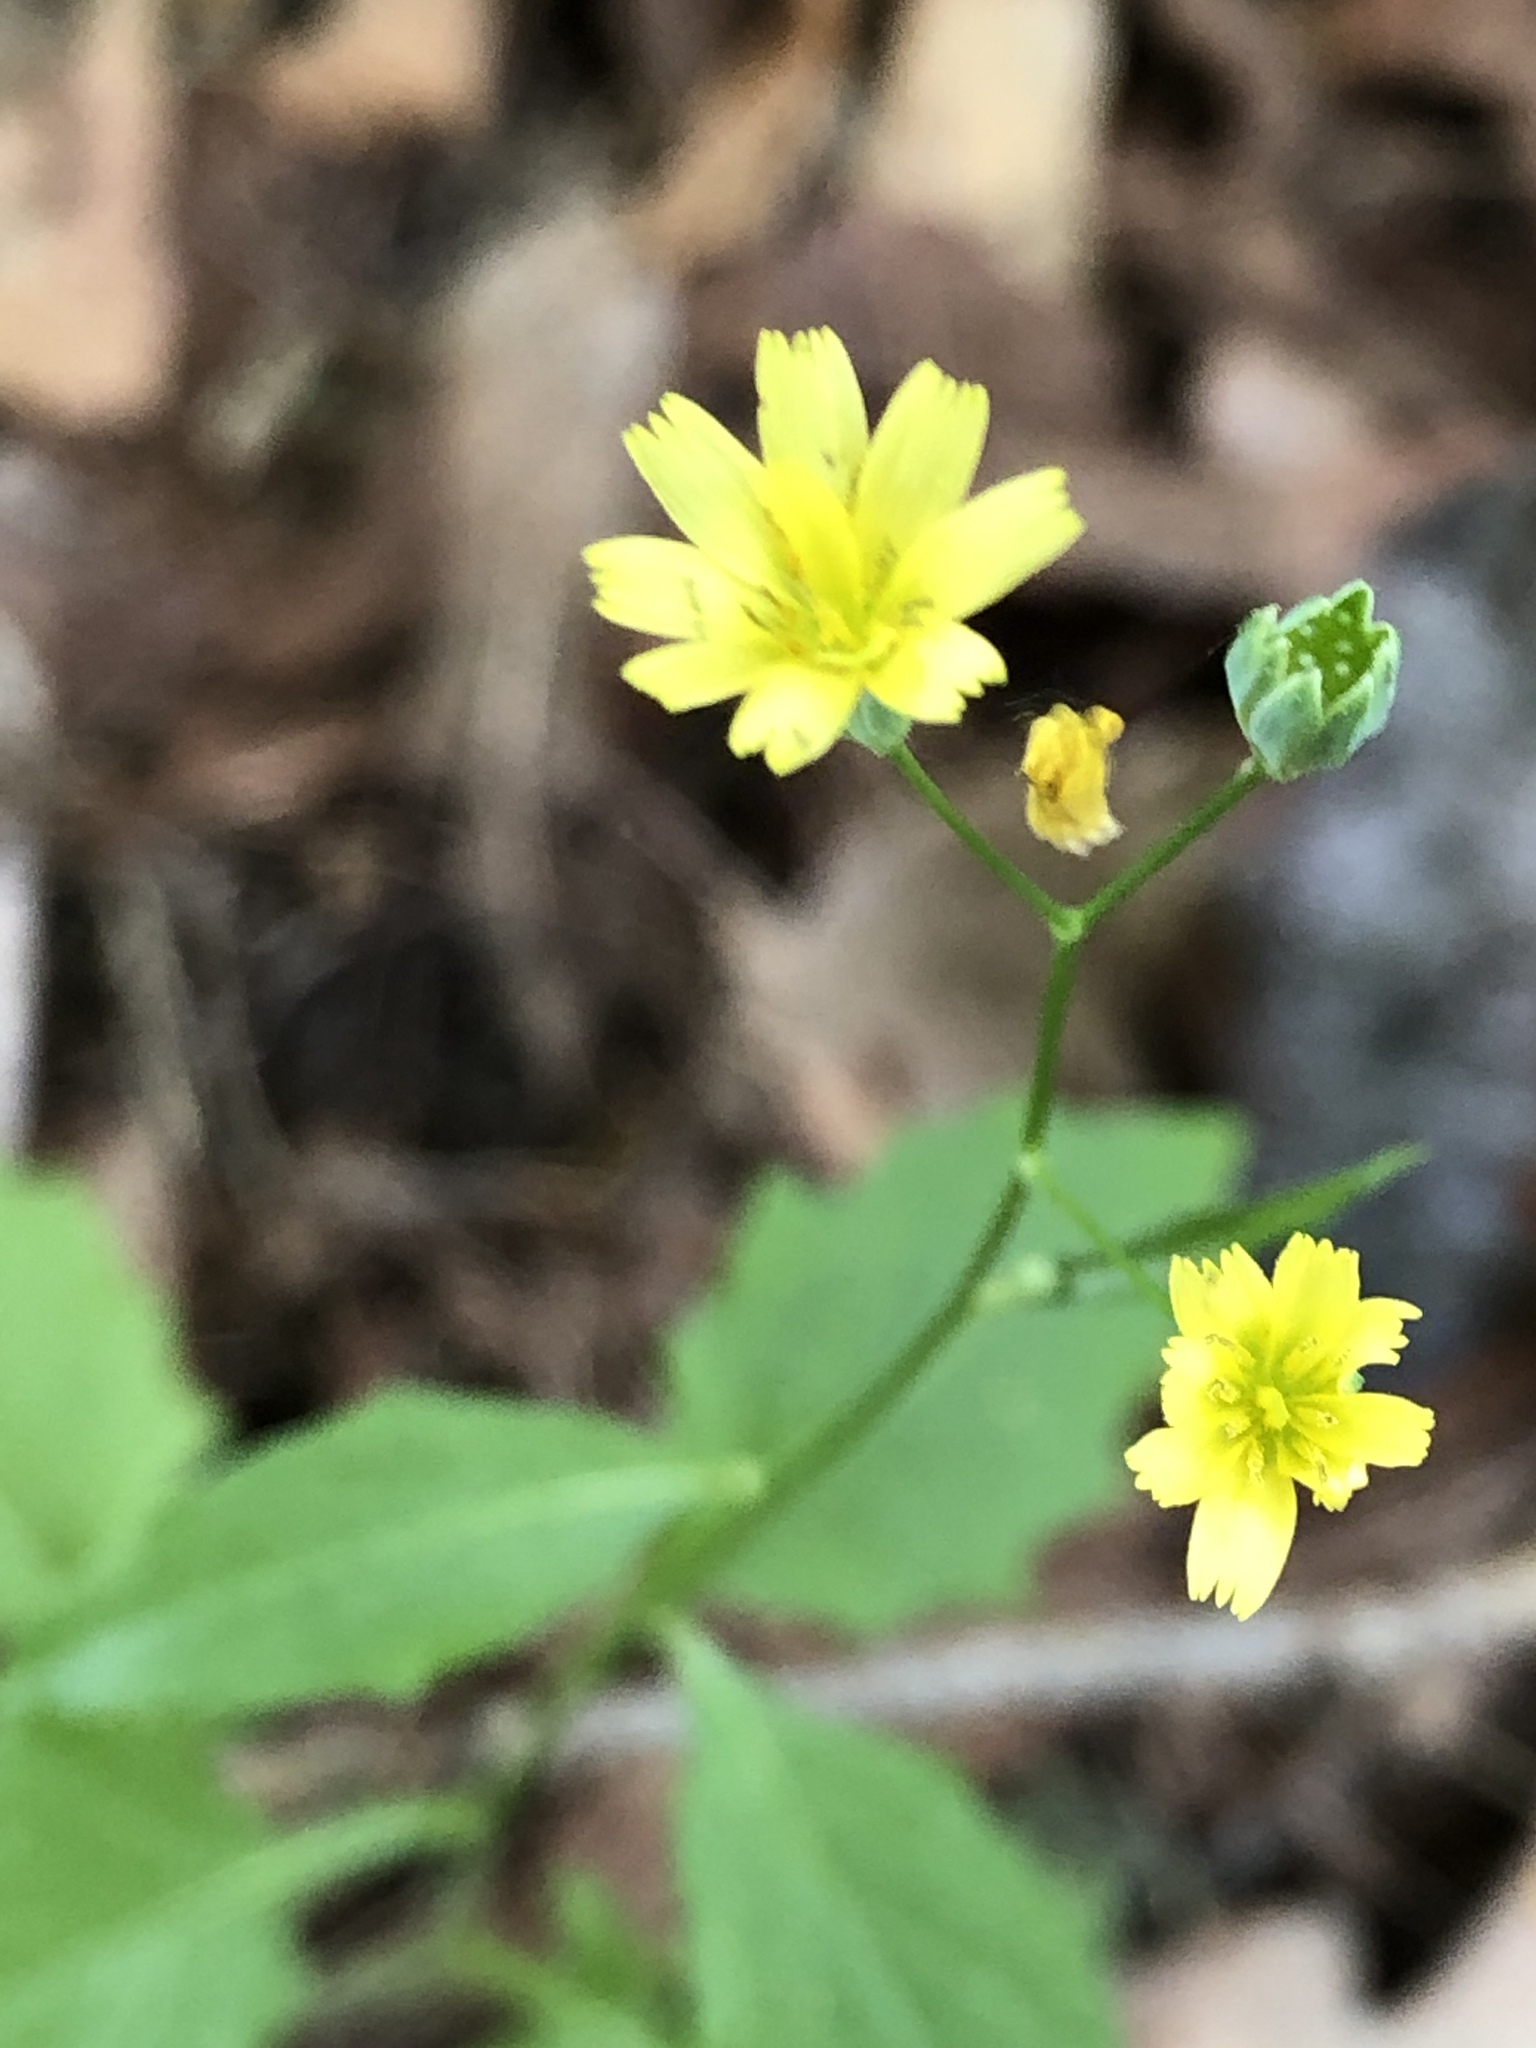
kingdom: Plantae
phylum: Tracheophyta
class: Magnoliopsida
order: Asterales
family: Asteraceae
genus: Lapsana
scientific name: Lapsana communis
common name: Nipplewort
